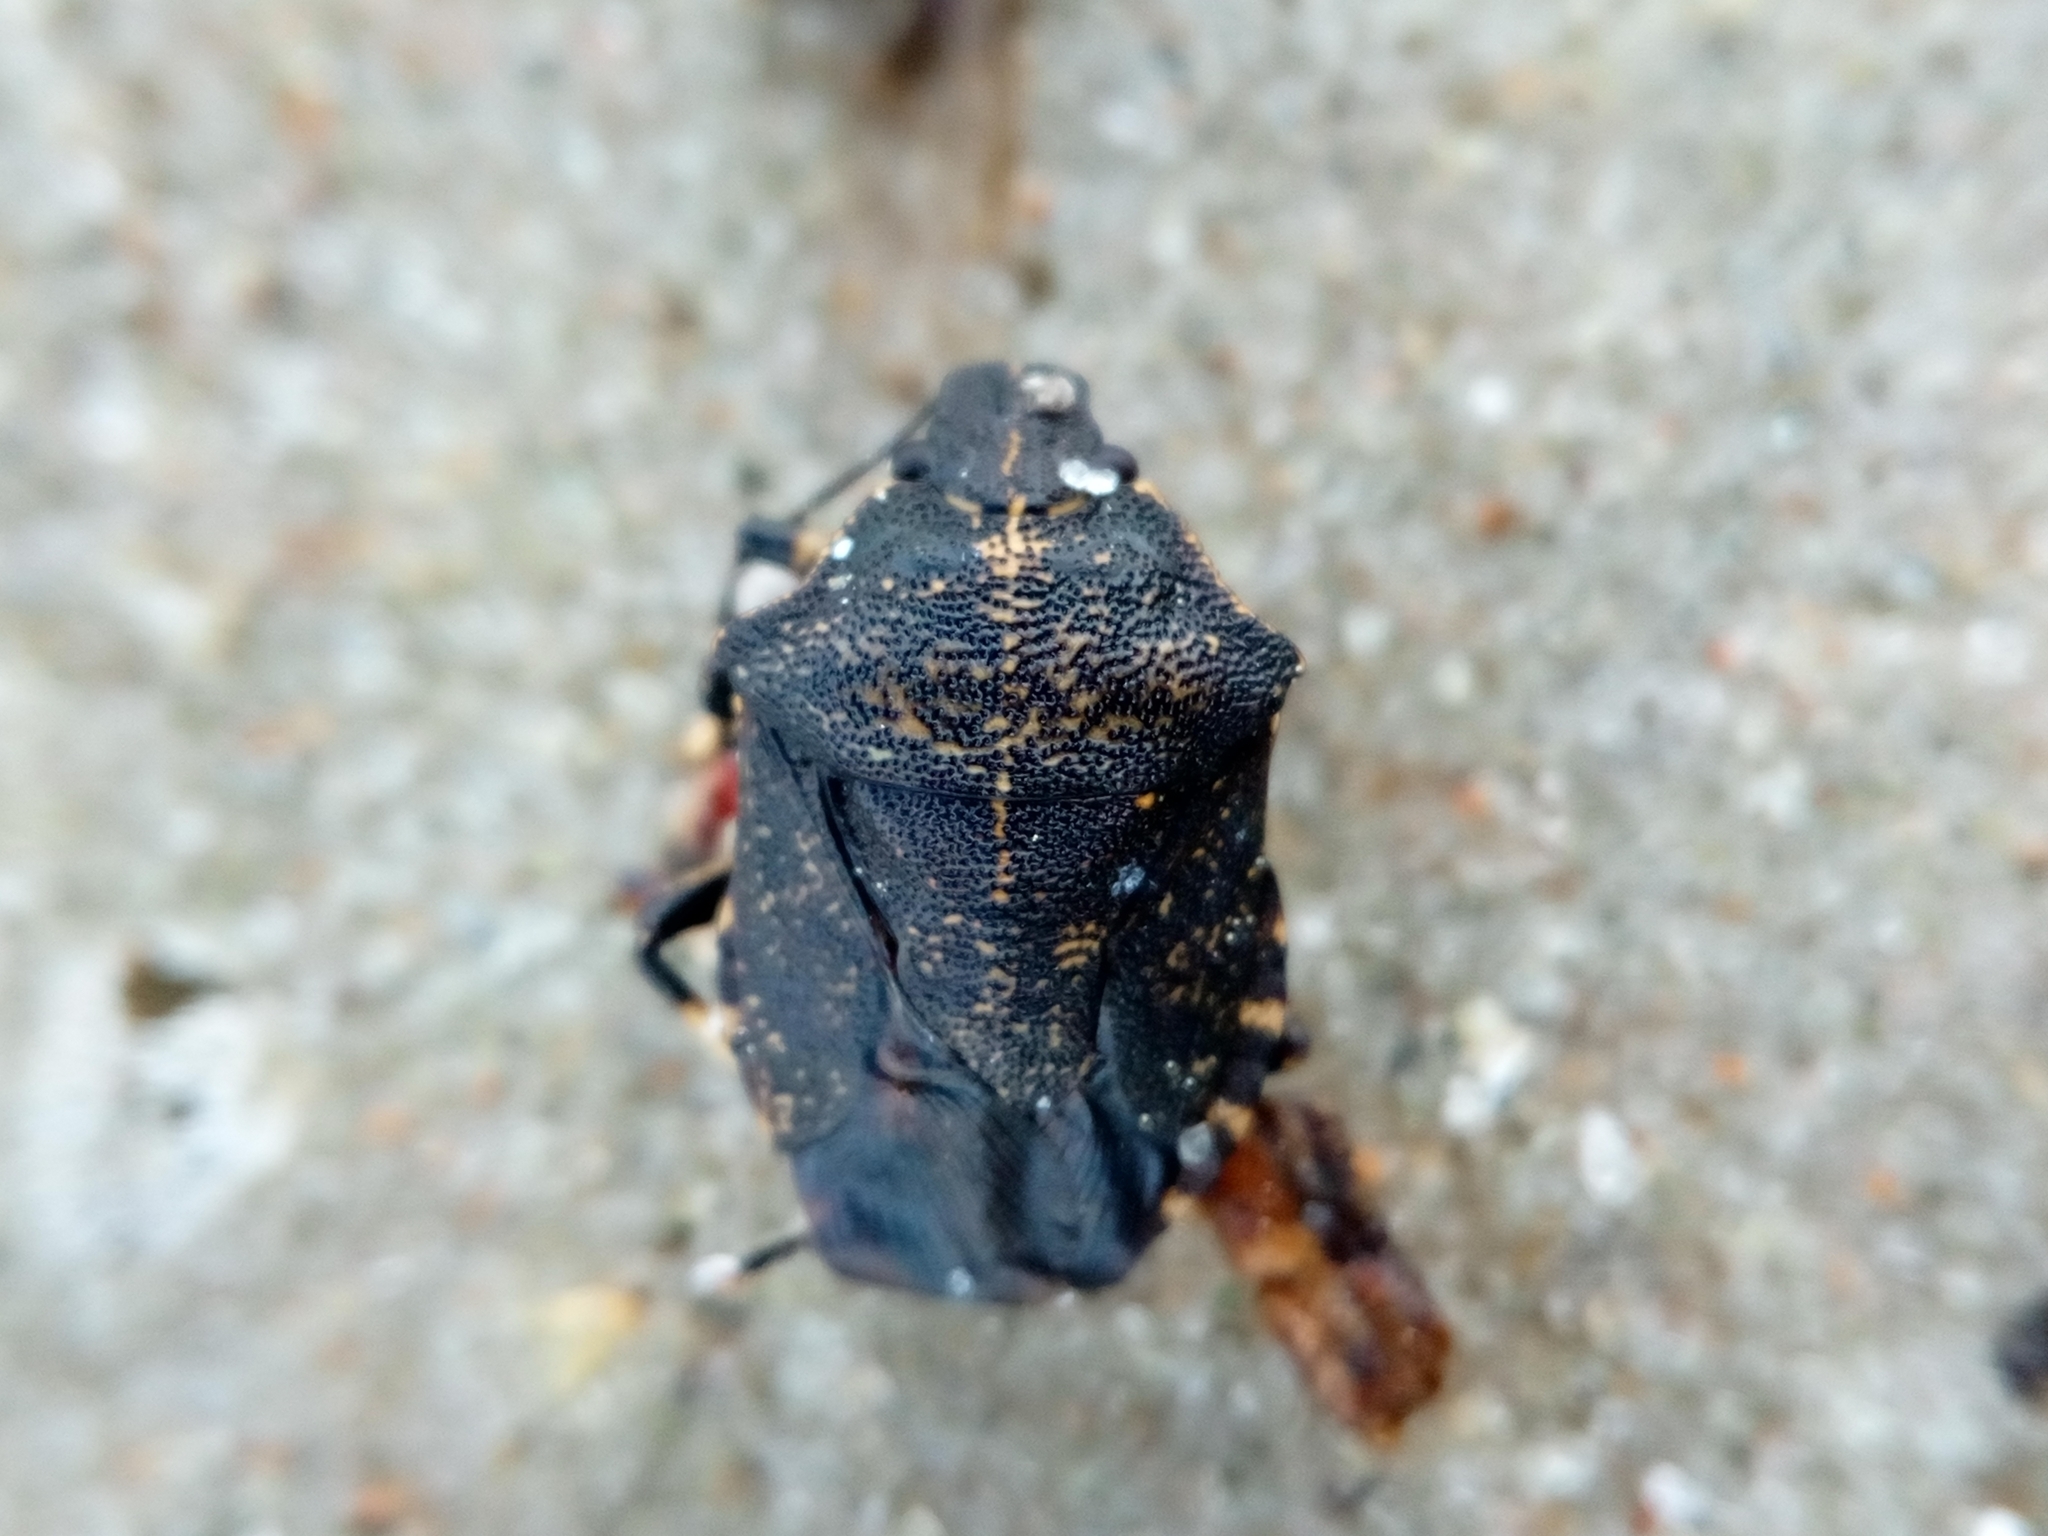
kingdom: Animalia
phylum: Arthropoda
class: Insecta
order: Hemiptera
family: Pentatomidae
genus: Rhacognathus
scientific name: Rhacognathus punctatus
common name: Heather bug
